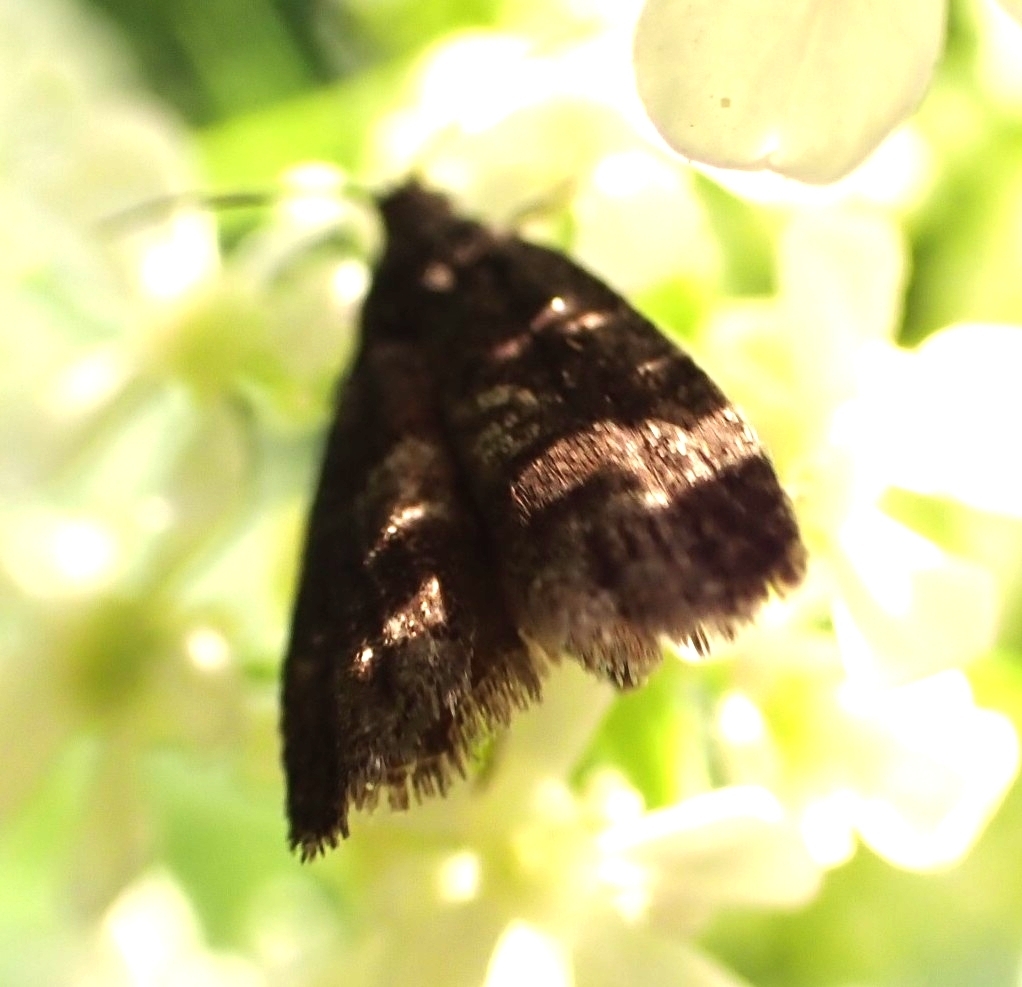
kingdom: Animalia
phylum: Arthropoda
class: Insecta
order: Lepidoptera
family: Crambidae
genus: Heliothela
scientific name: Heliothela wulfeniana
